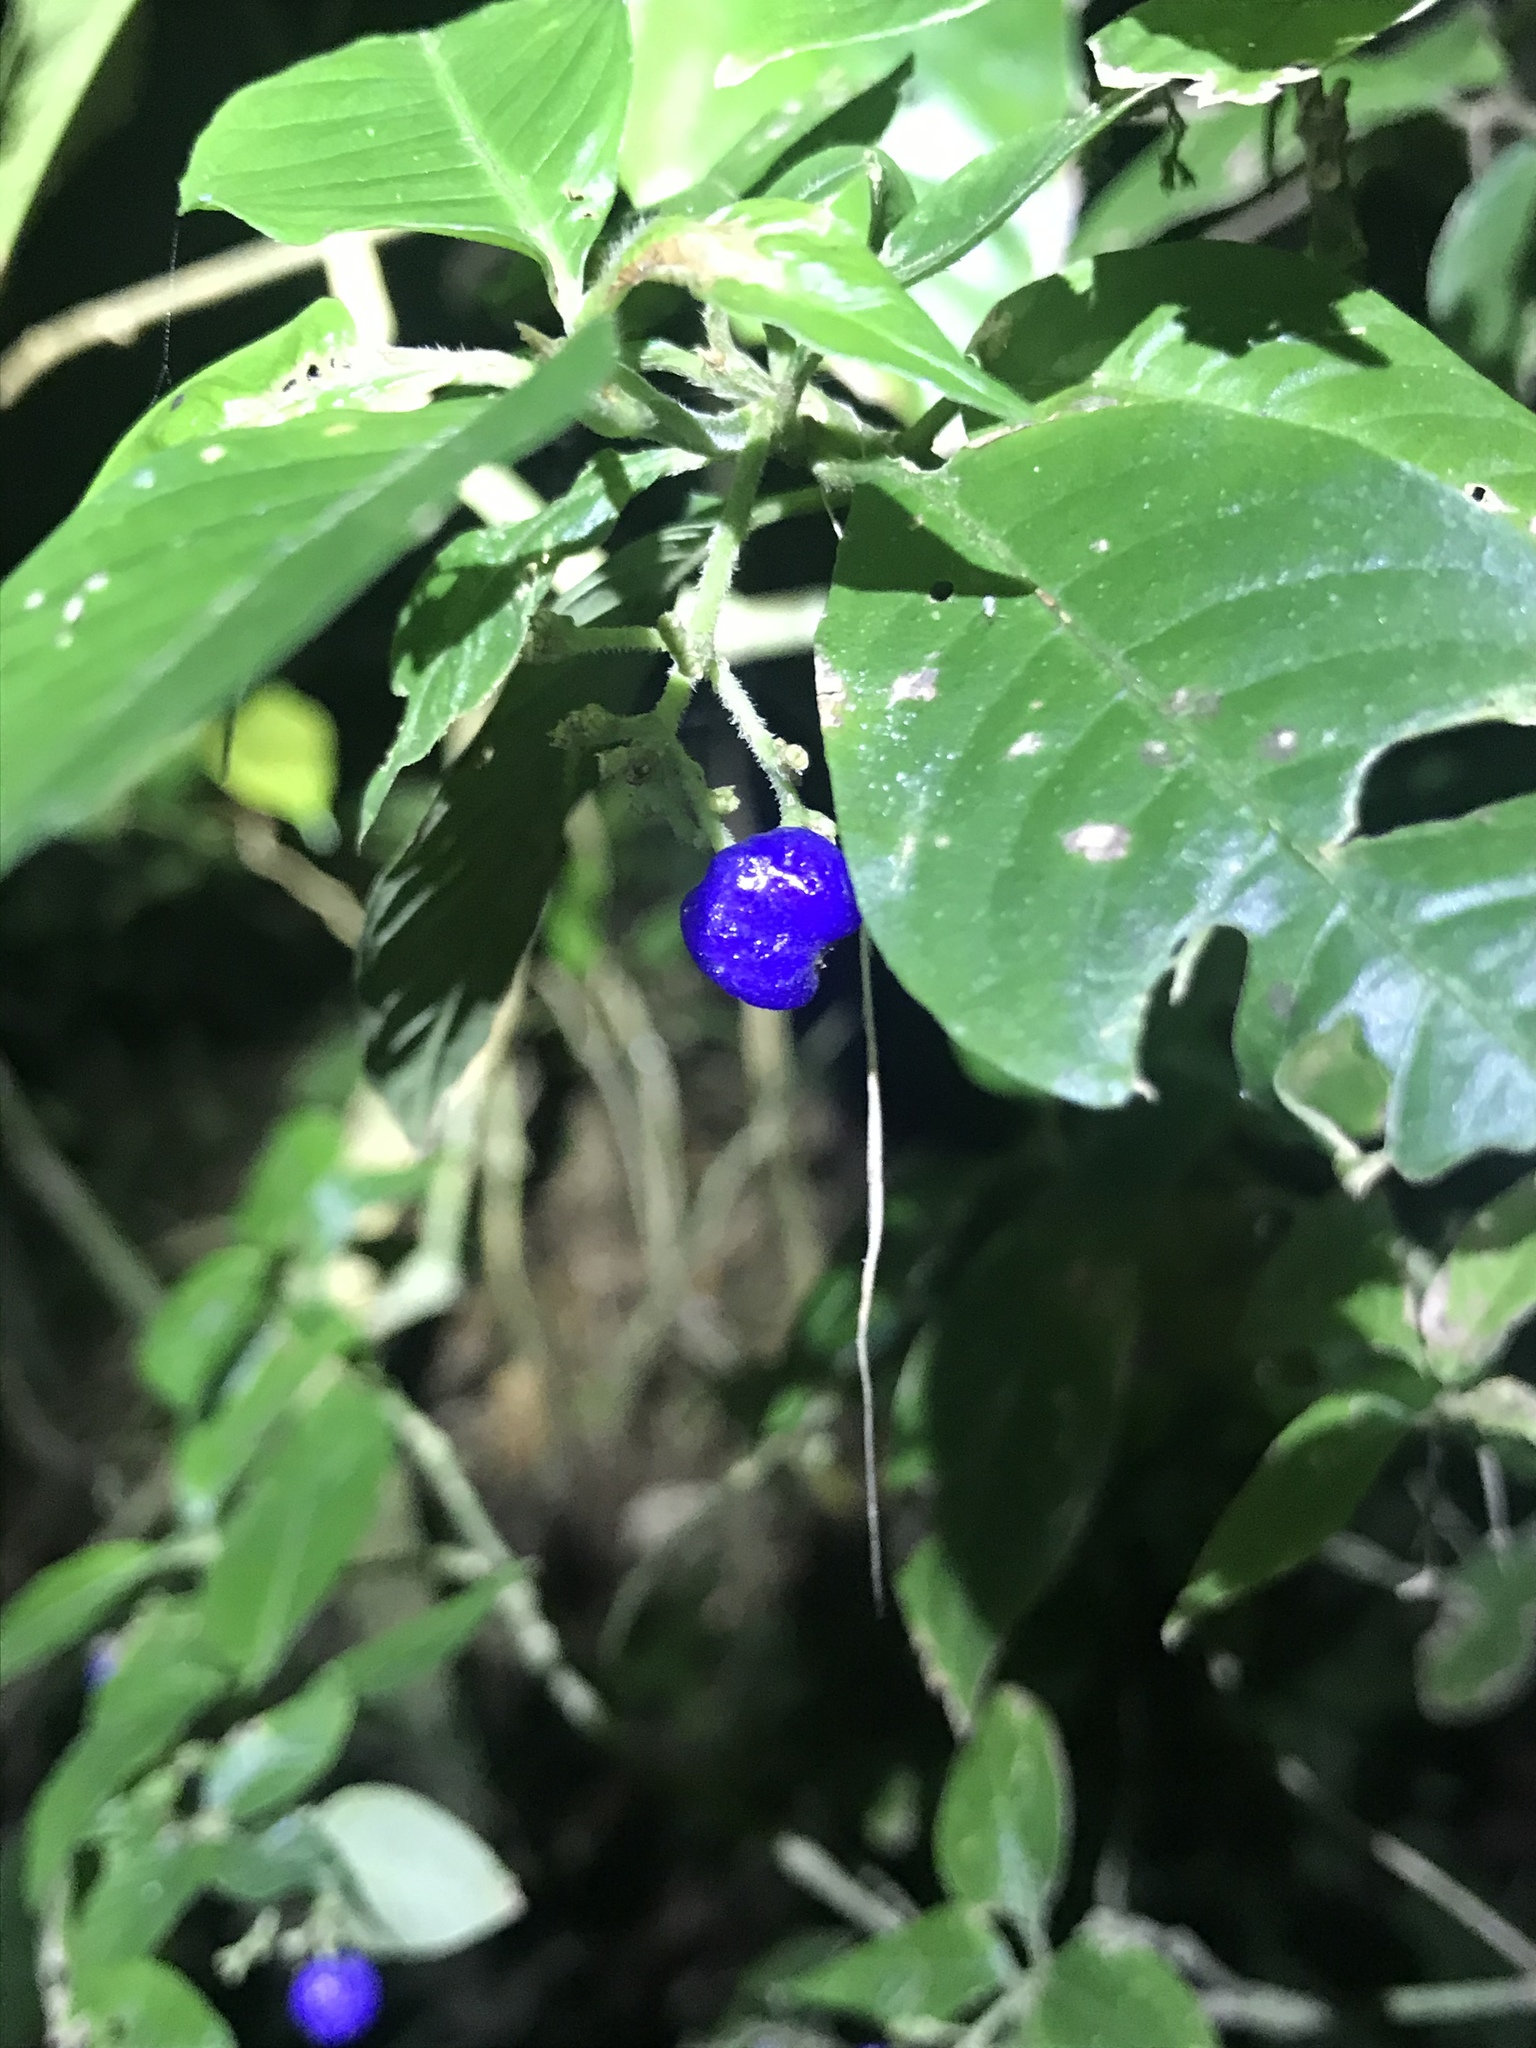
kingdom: Plantae
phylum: Tracheophyta
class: Magnoliopsida
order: Gentianales
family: Rubiaceae
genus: Palicourea
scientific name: Palicourea cyanococca
